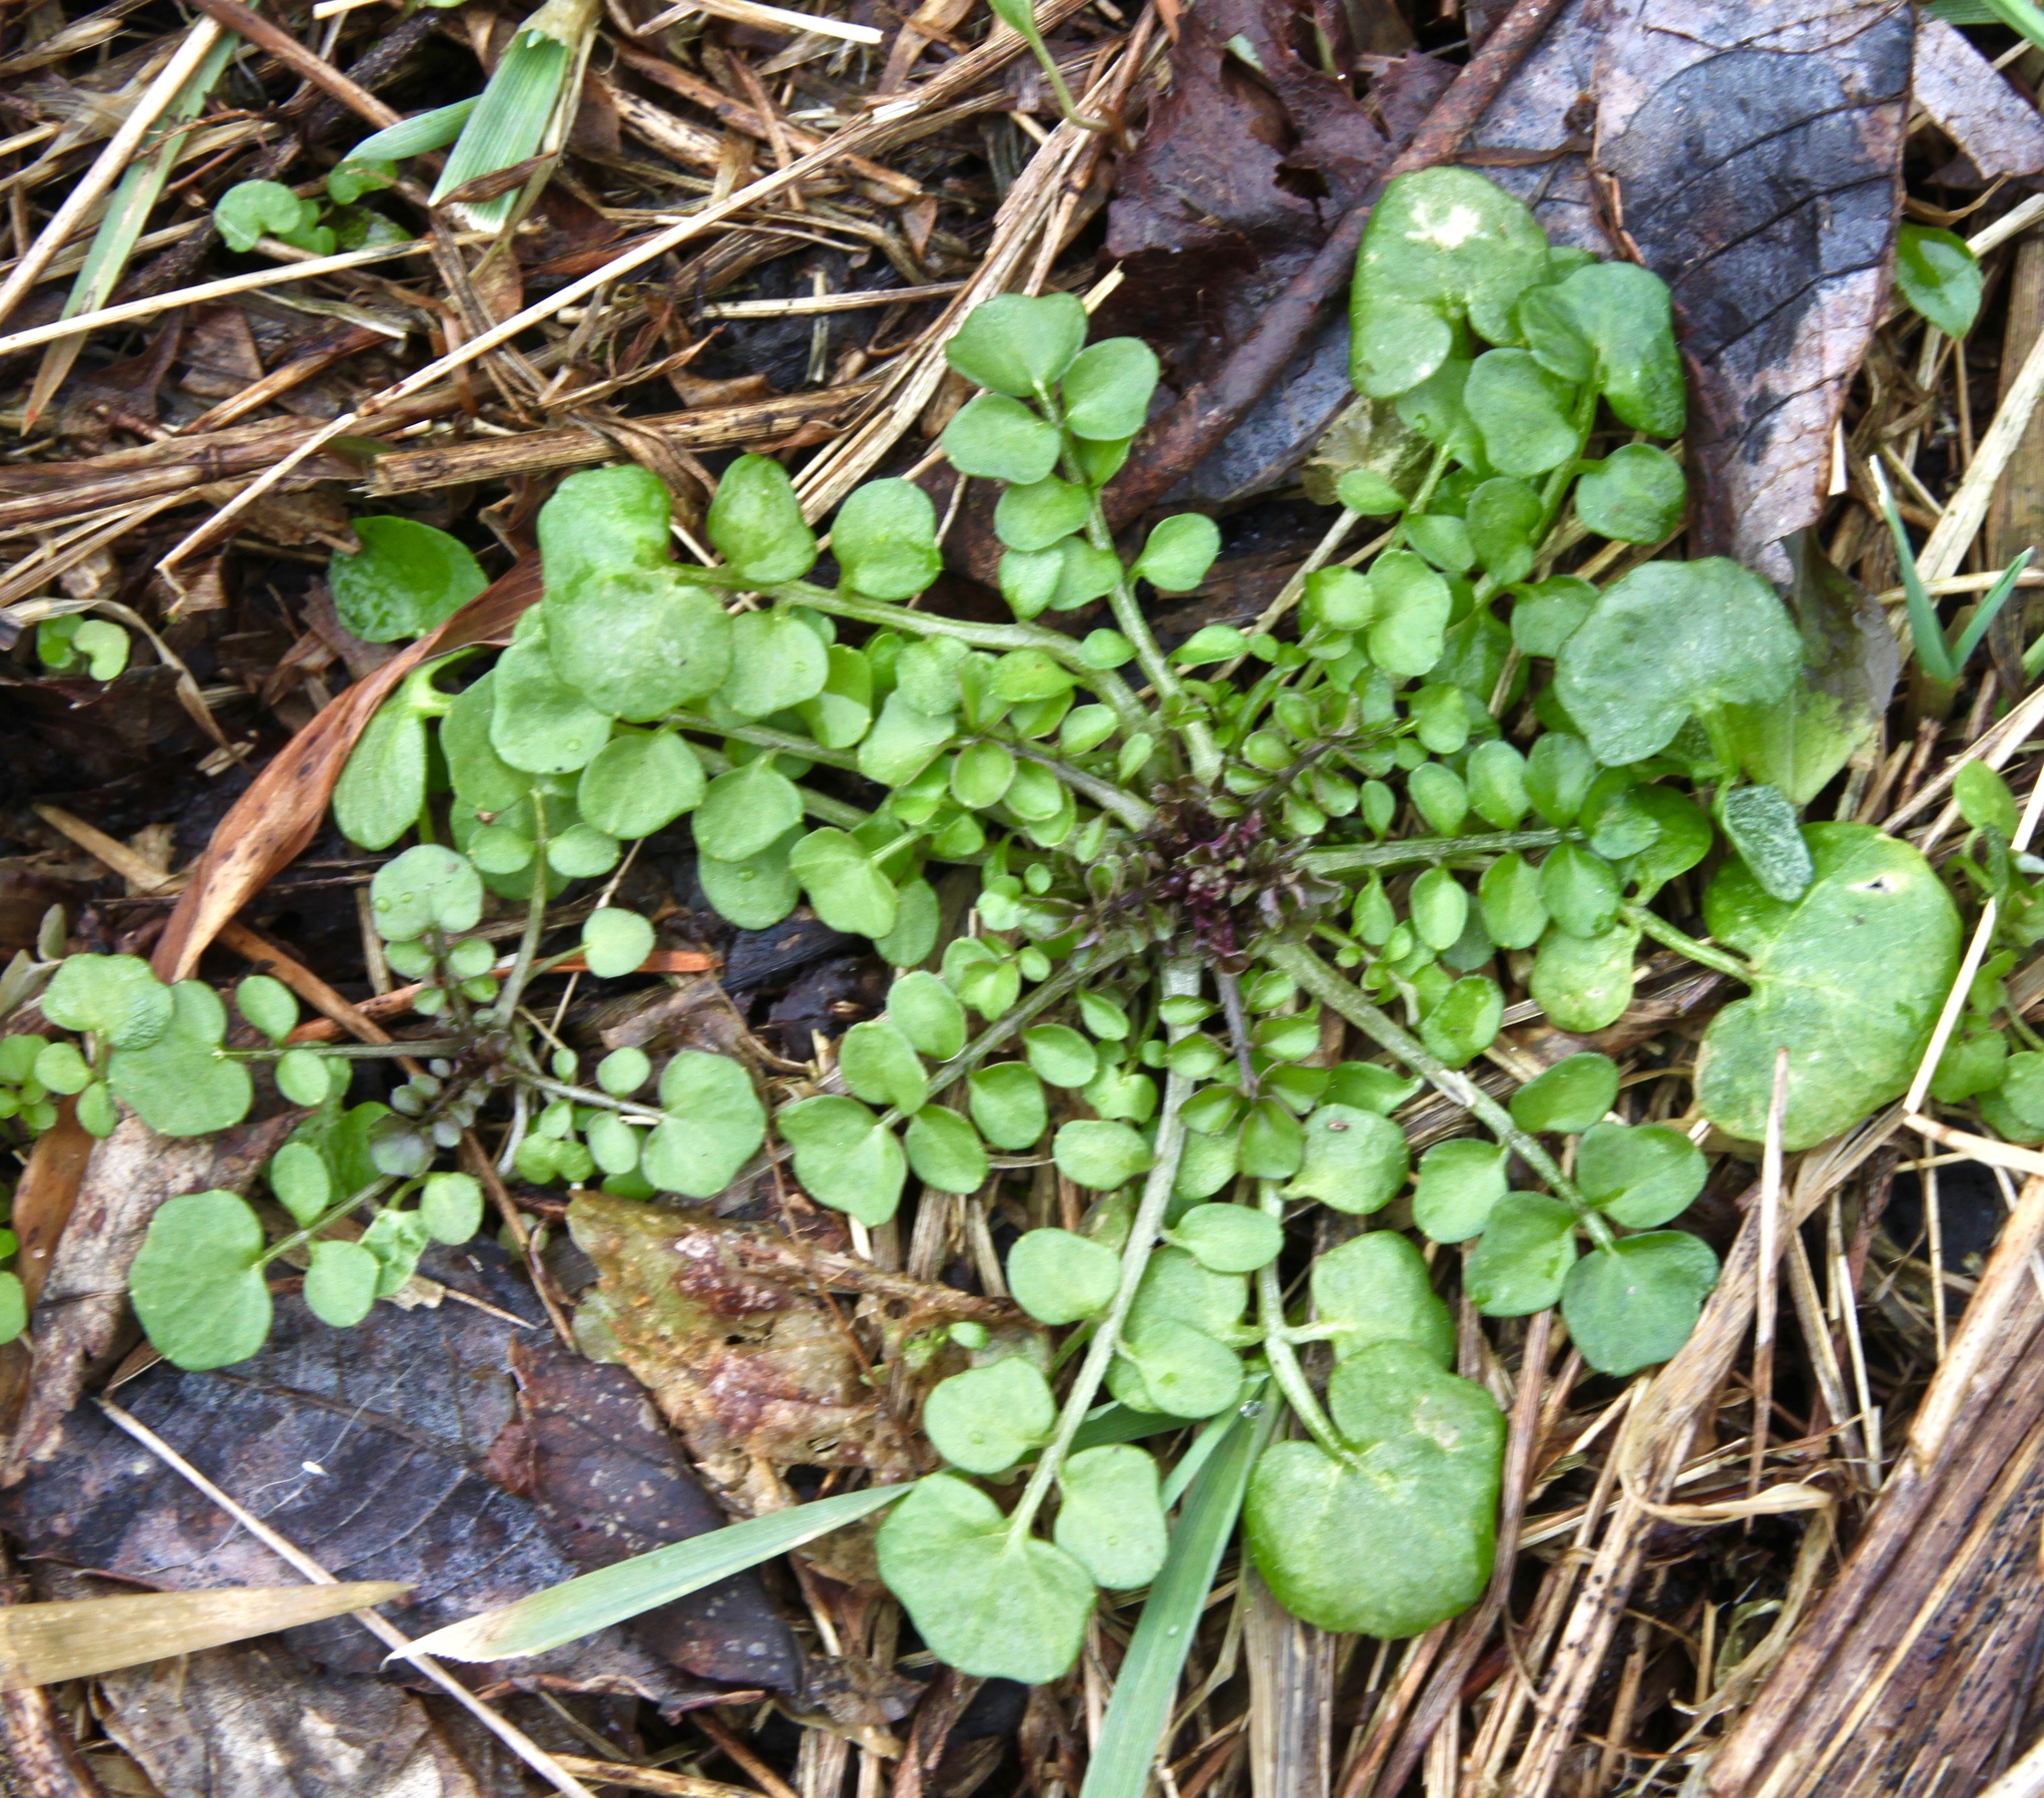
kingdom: Plantae
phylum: Tracheophyta
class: Magnoliopsida
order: Brassicales
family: Brassicaceae
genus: Cardamine
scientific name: Cardamine hirsuta
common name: Hairy bittercress
